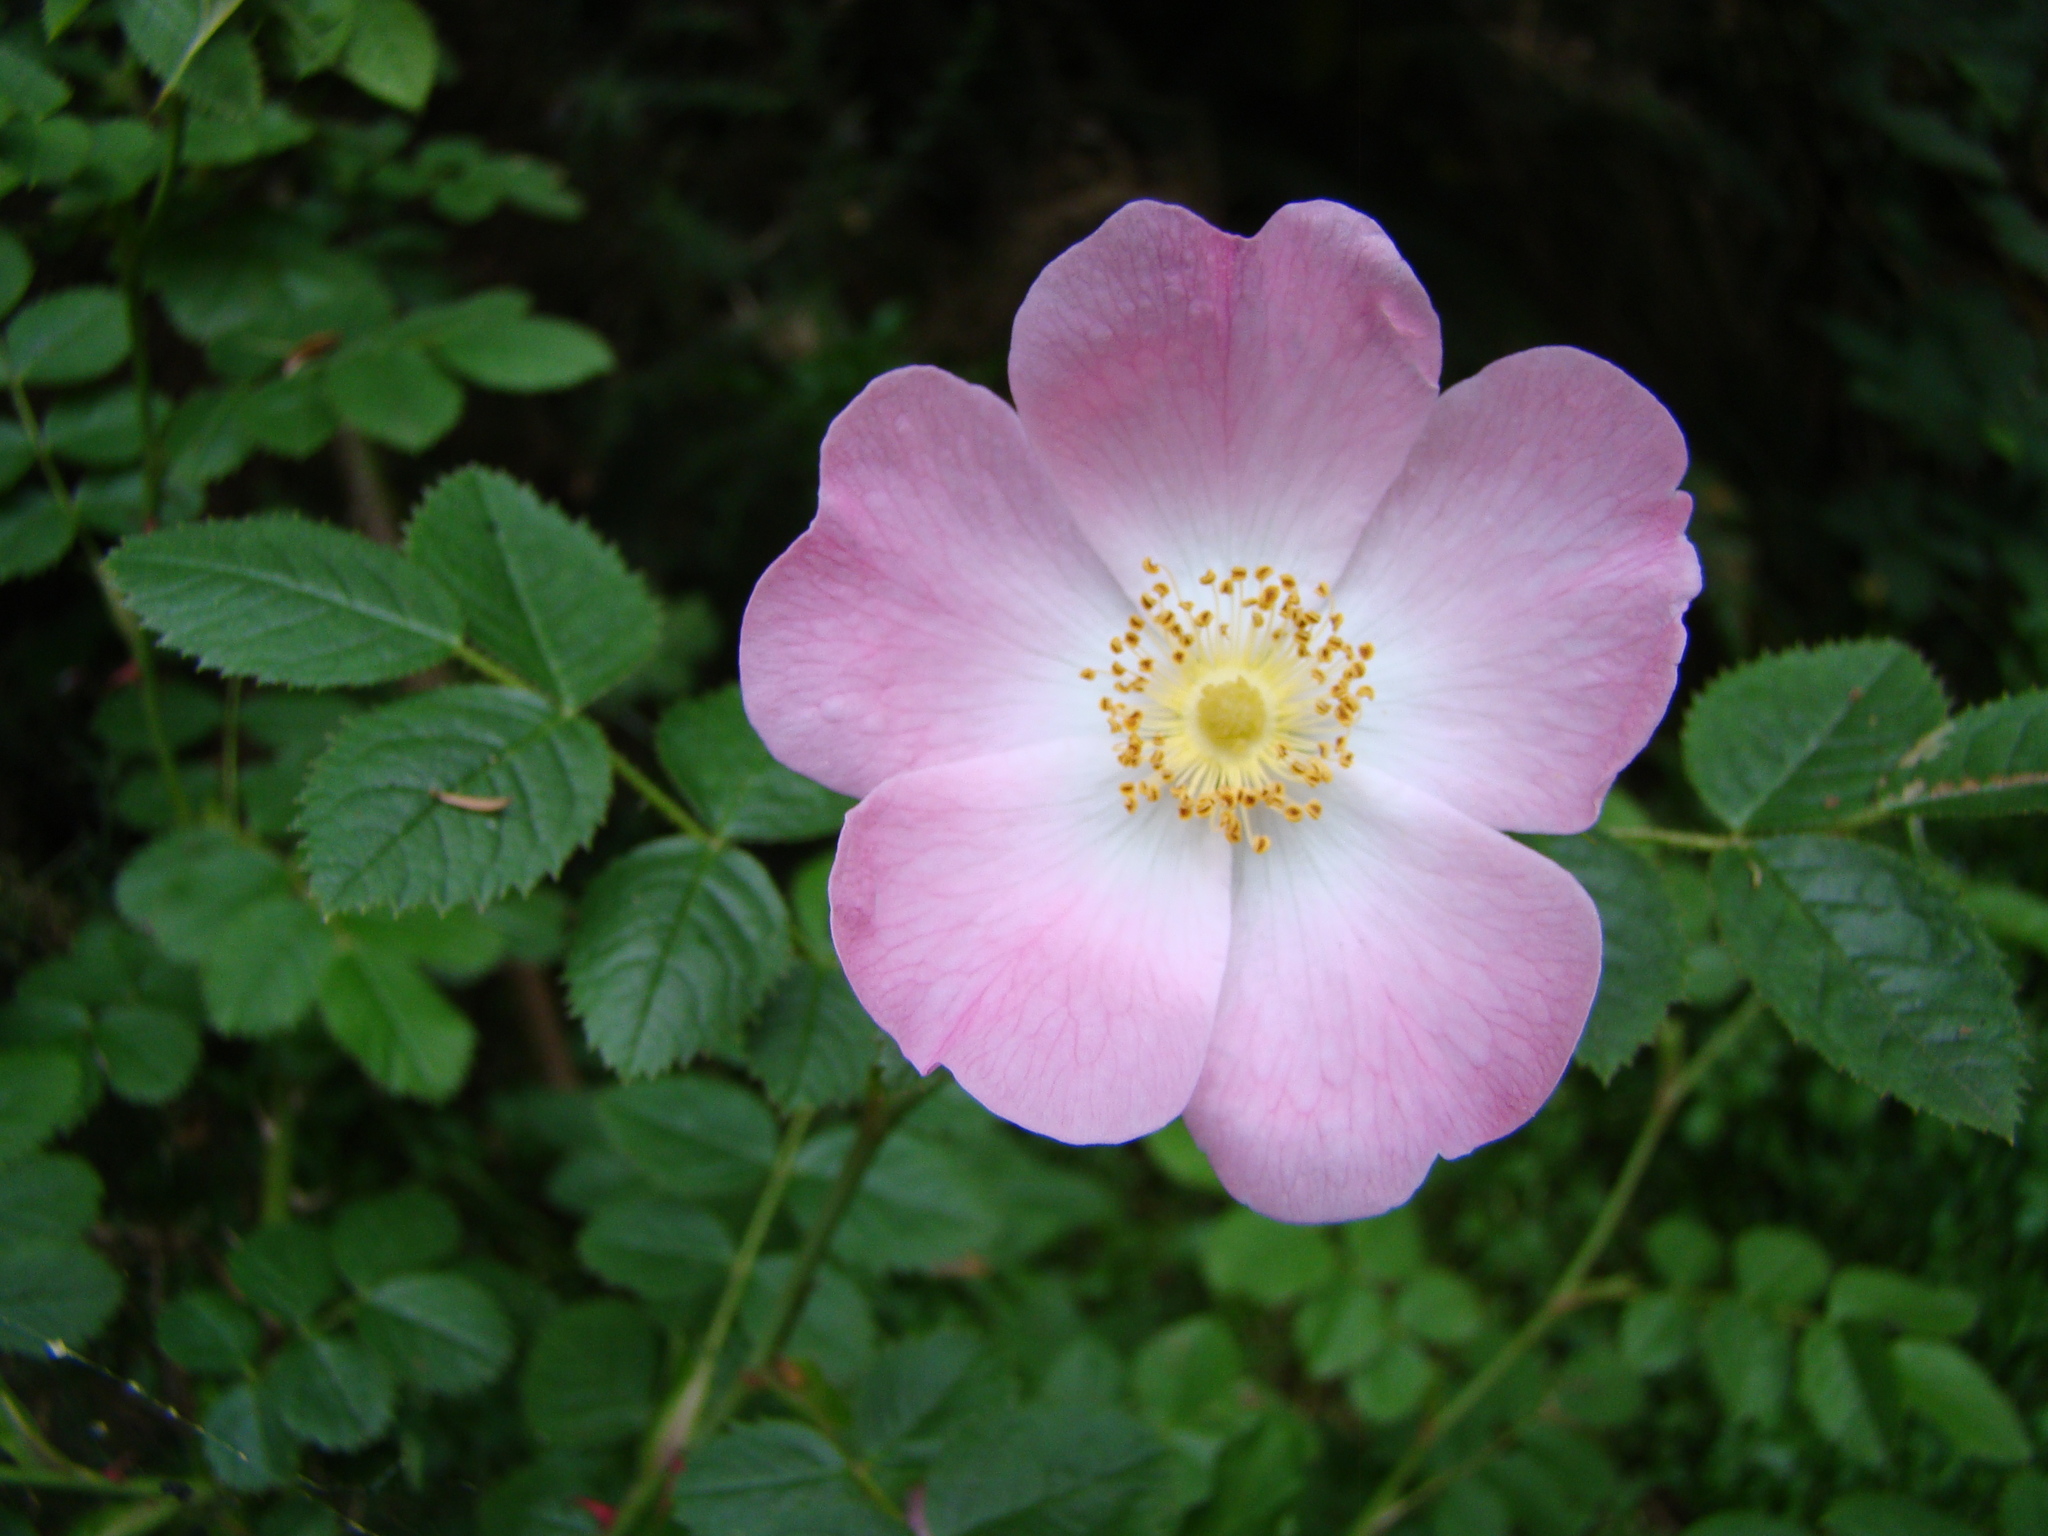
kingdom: Plantae
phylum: Tracheophyta
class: Magnoliopsida
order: Rosales
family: Rosaceae
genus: Rosa
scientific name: Rosa canina
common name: Dog rose
